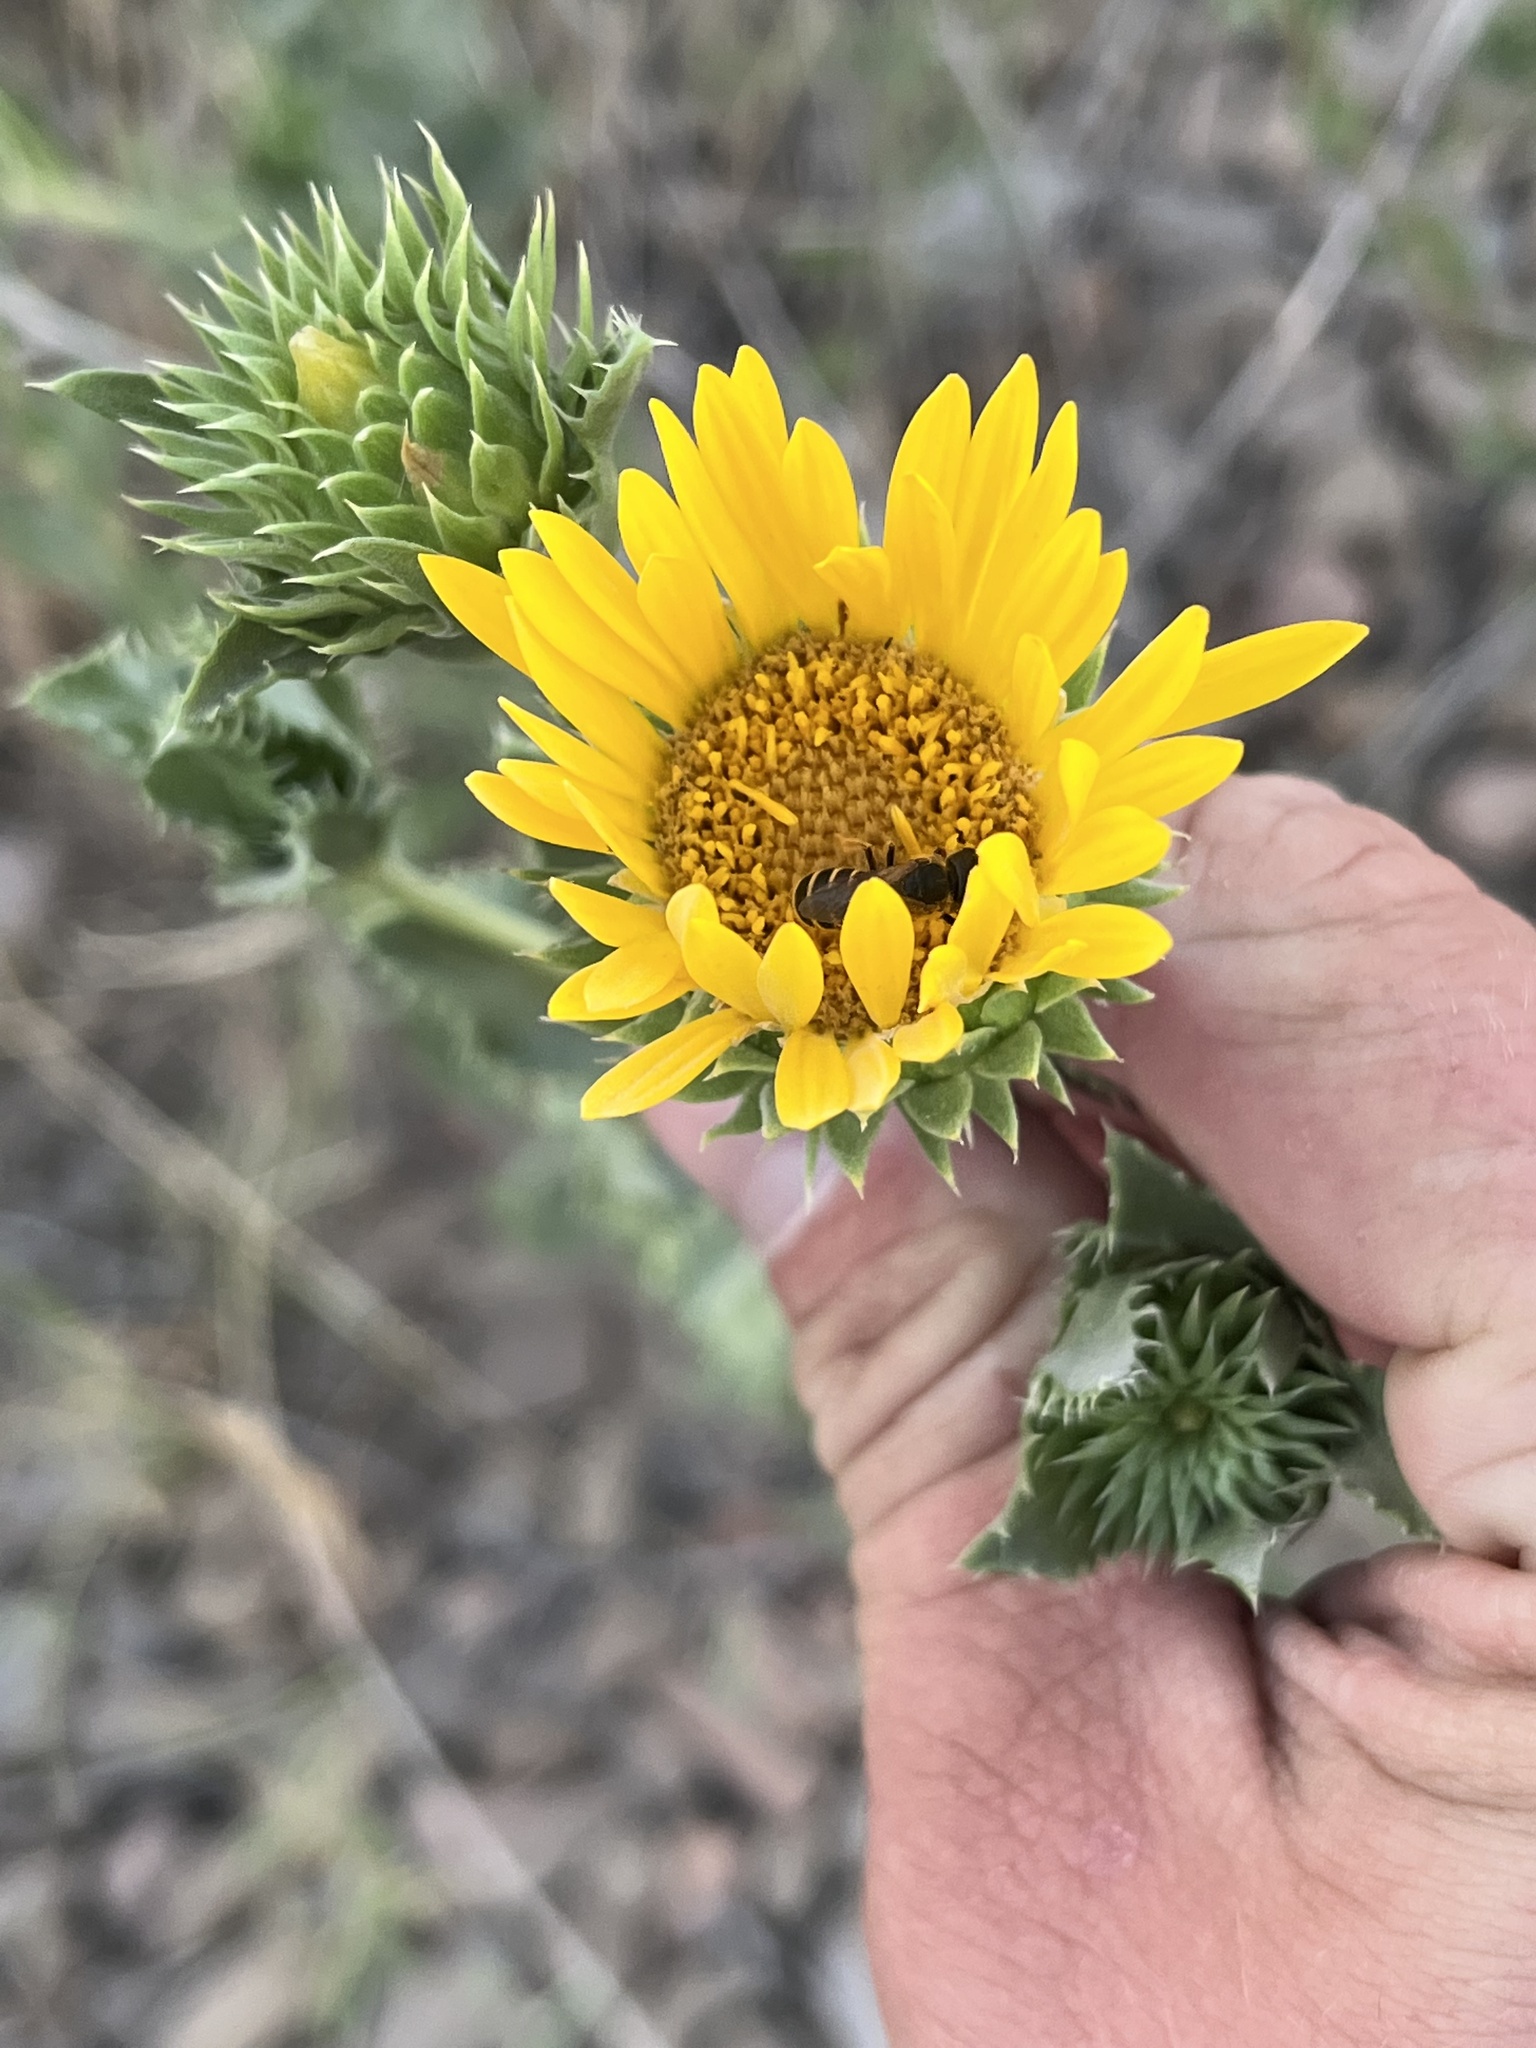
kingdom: Plantae
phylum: Tracheophyta
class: Magnoliopsida
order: Asterales
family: Asteraceae
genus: Grindelia
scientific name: Grindelia ciliata
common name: Goldenweed
